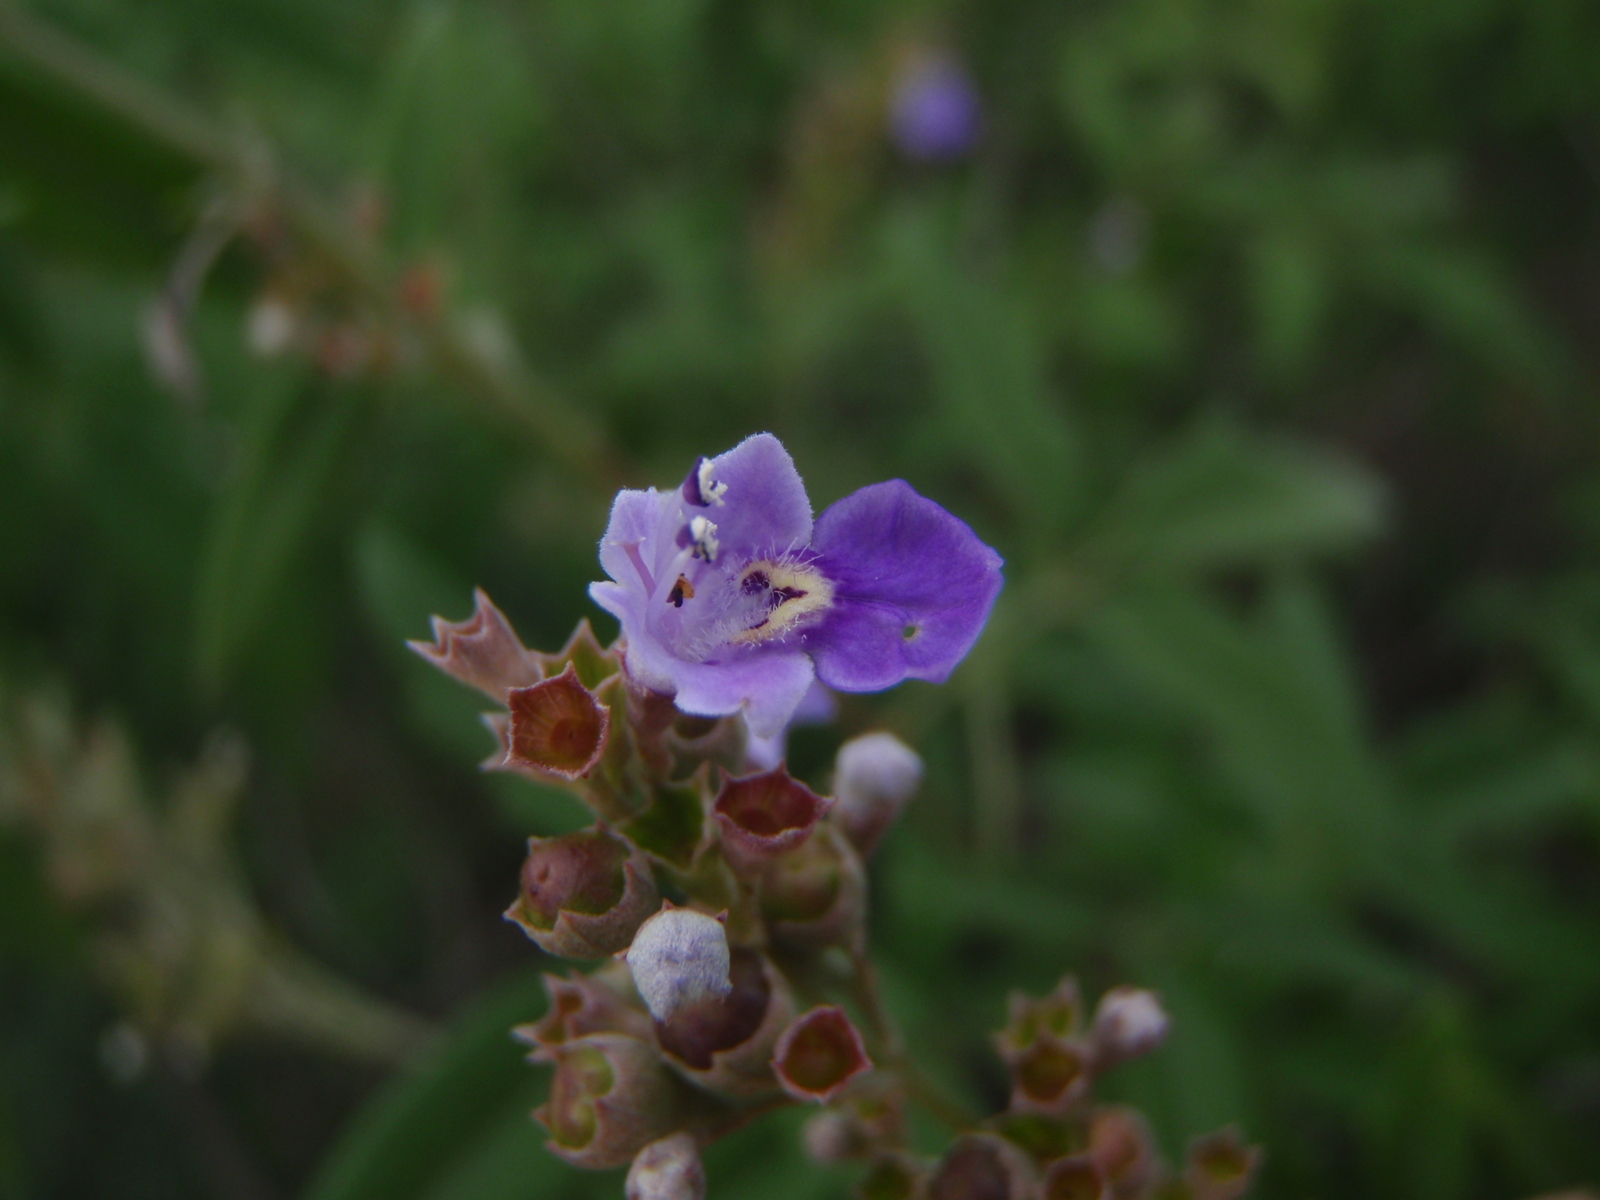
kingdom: Plantae
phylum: Tracheophyta
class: Magnoliopsida
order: Lamiales
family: Lamiaceae
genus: Vitex
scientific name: Vitex negundo
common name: Chinese chastetree
